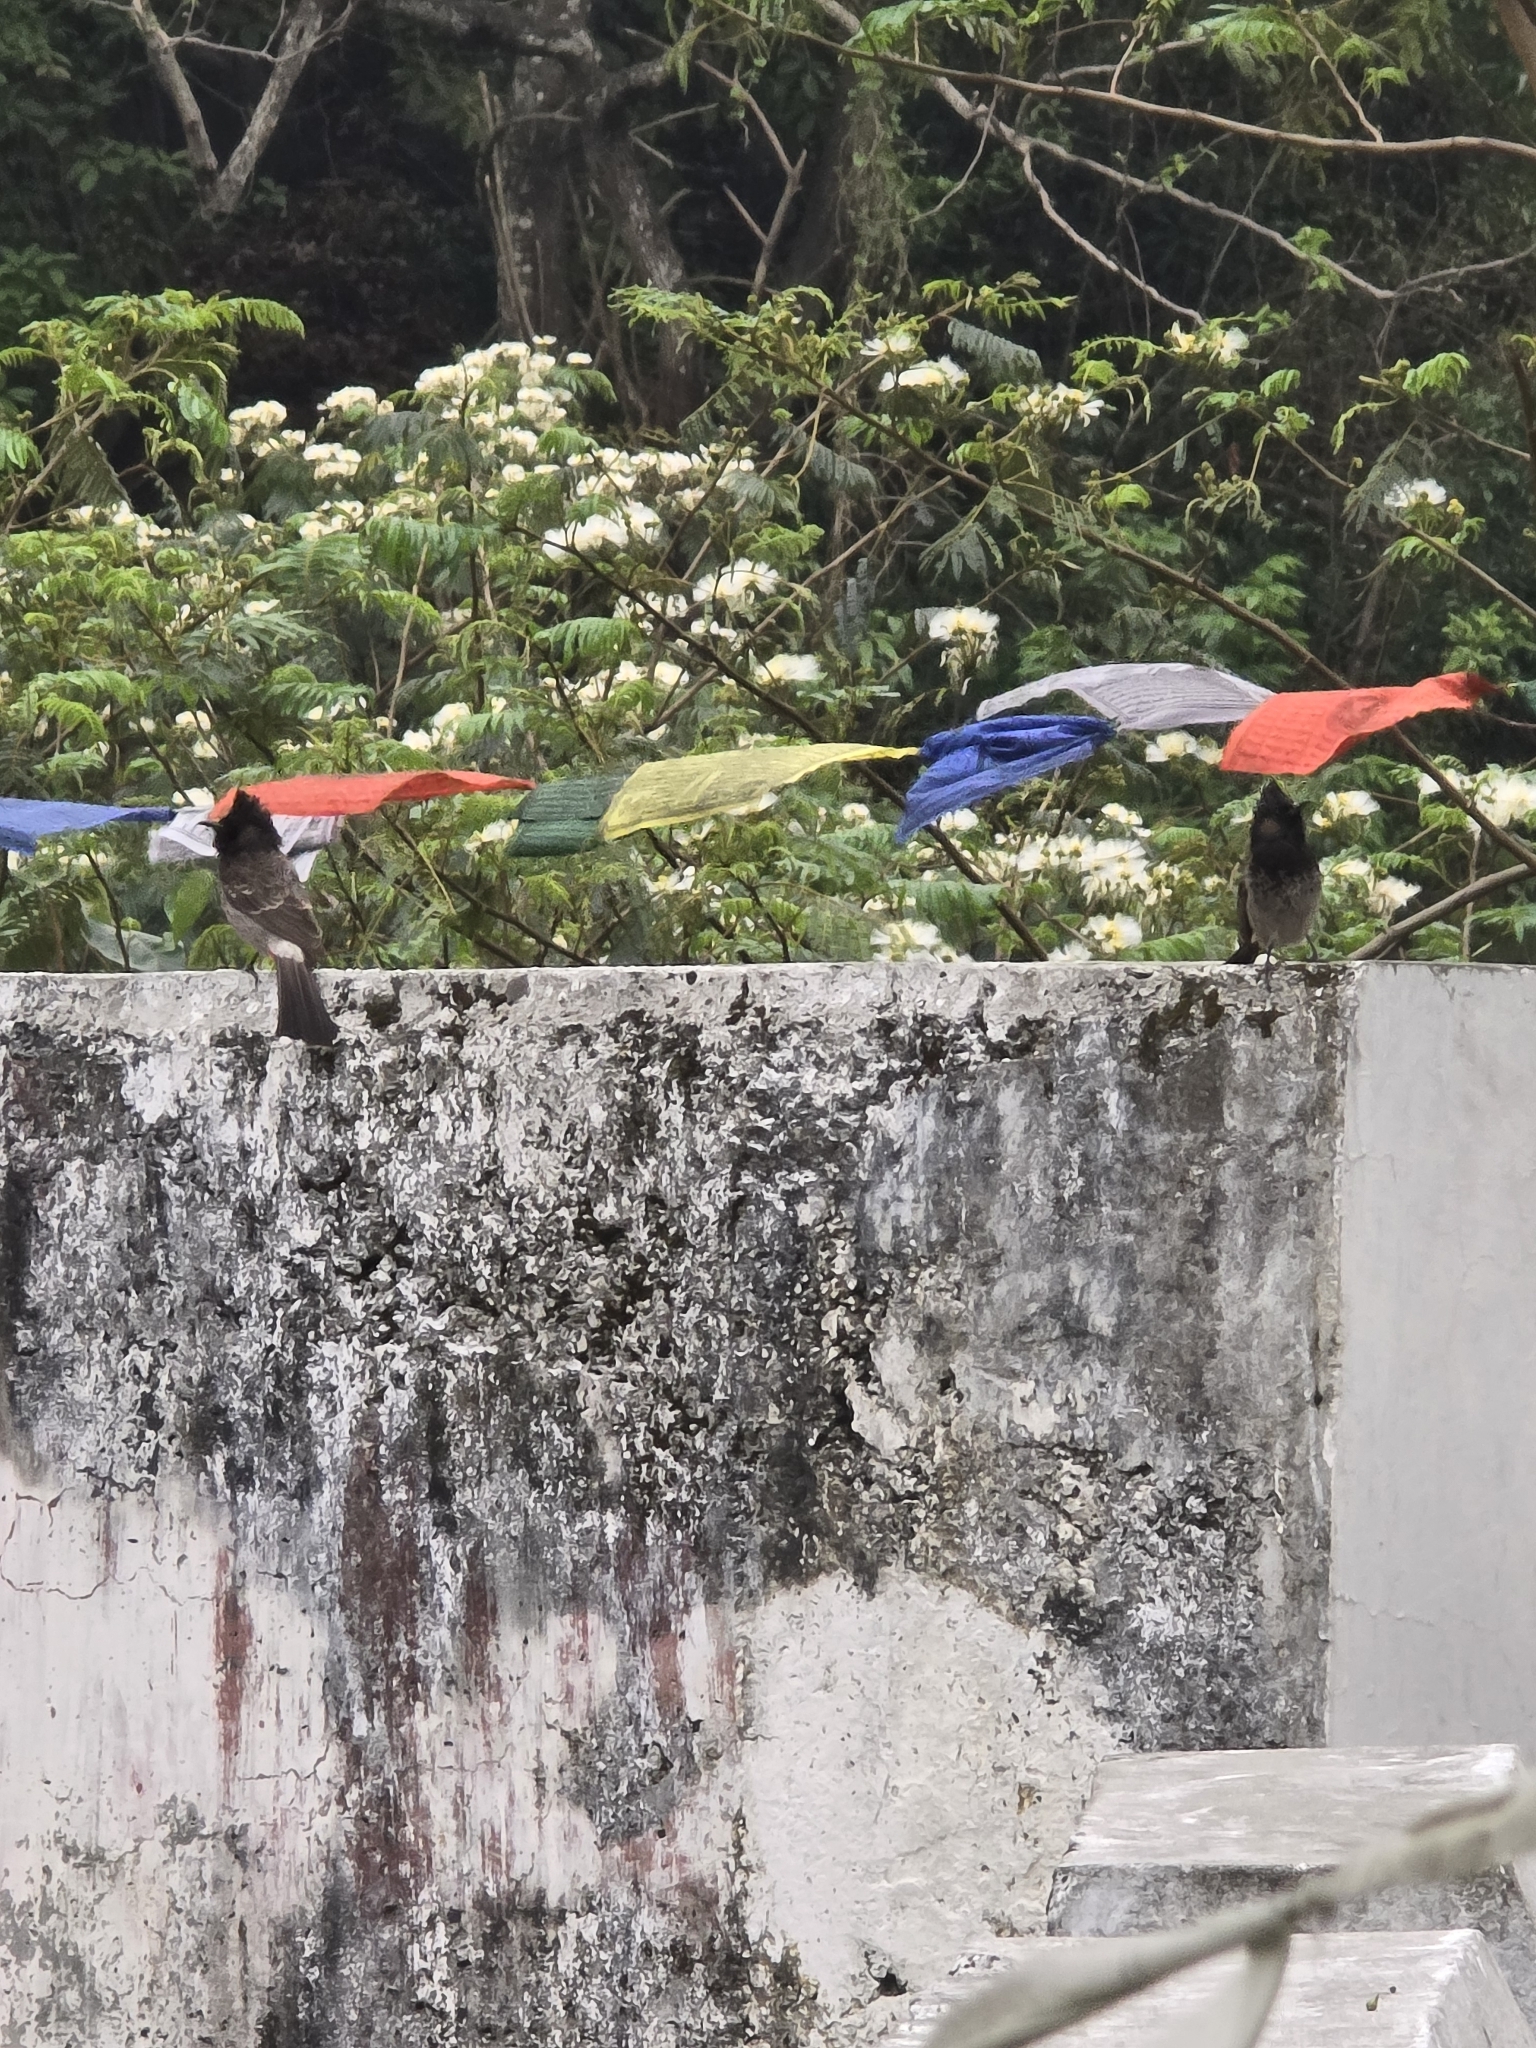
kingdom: Animalia
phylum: Chordata
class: Aves
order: Passeriformes
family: Pycnonotidae
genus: Pycnonotus
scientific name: Pycnonotus cafer
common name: Red-vented bulbul
